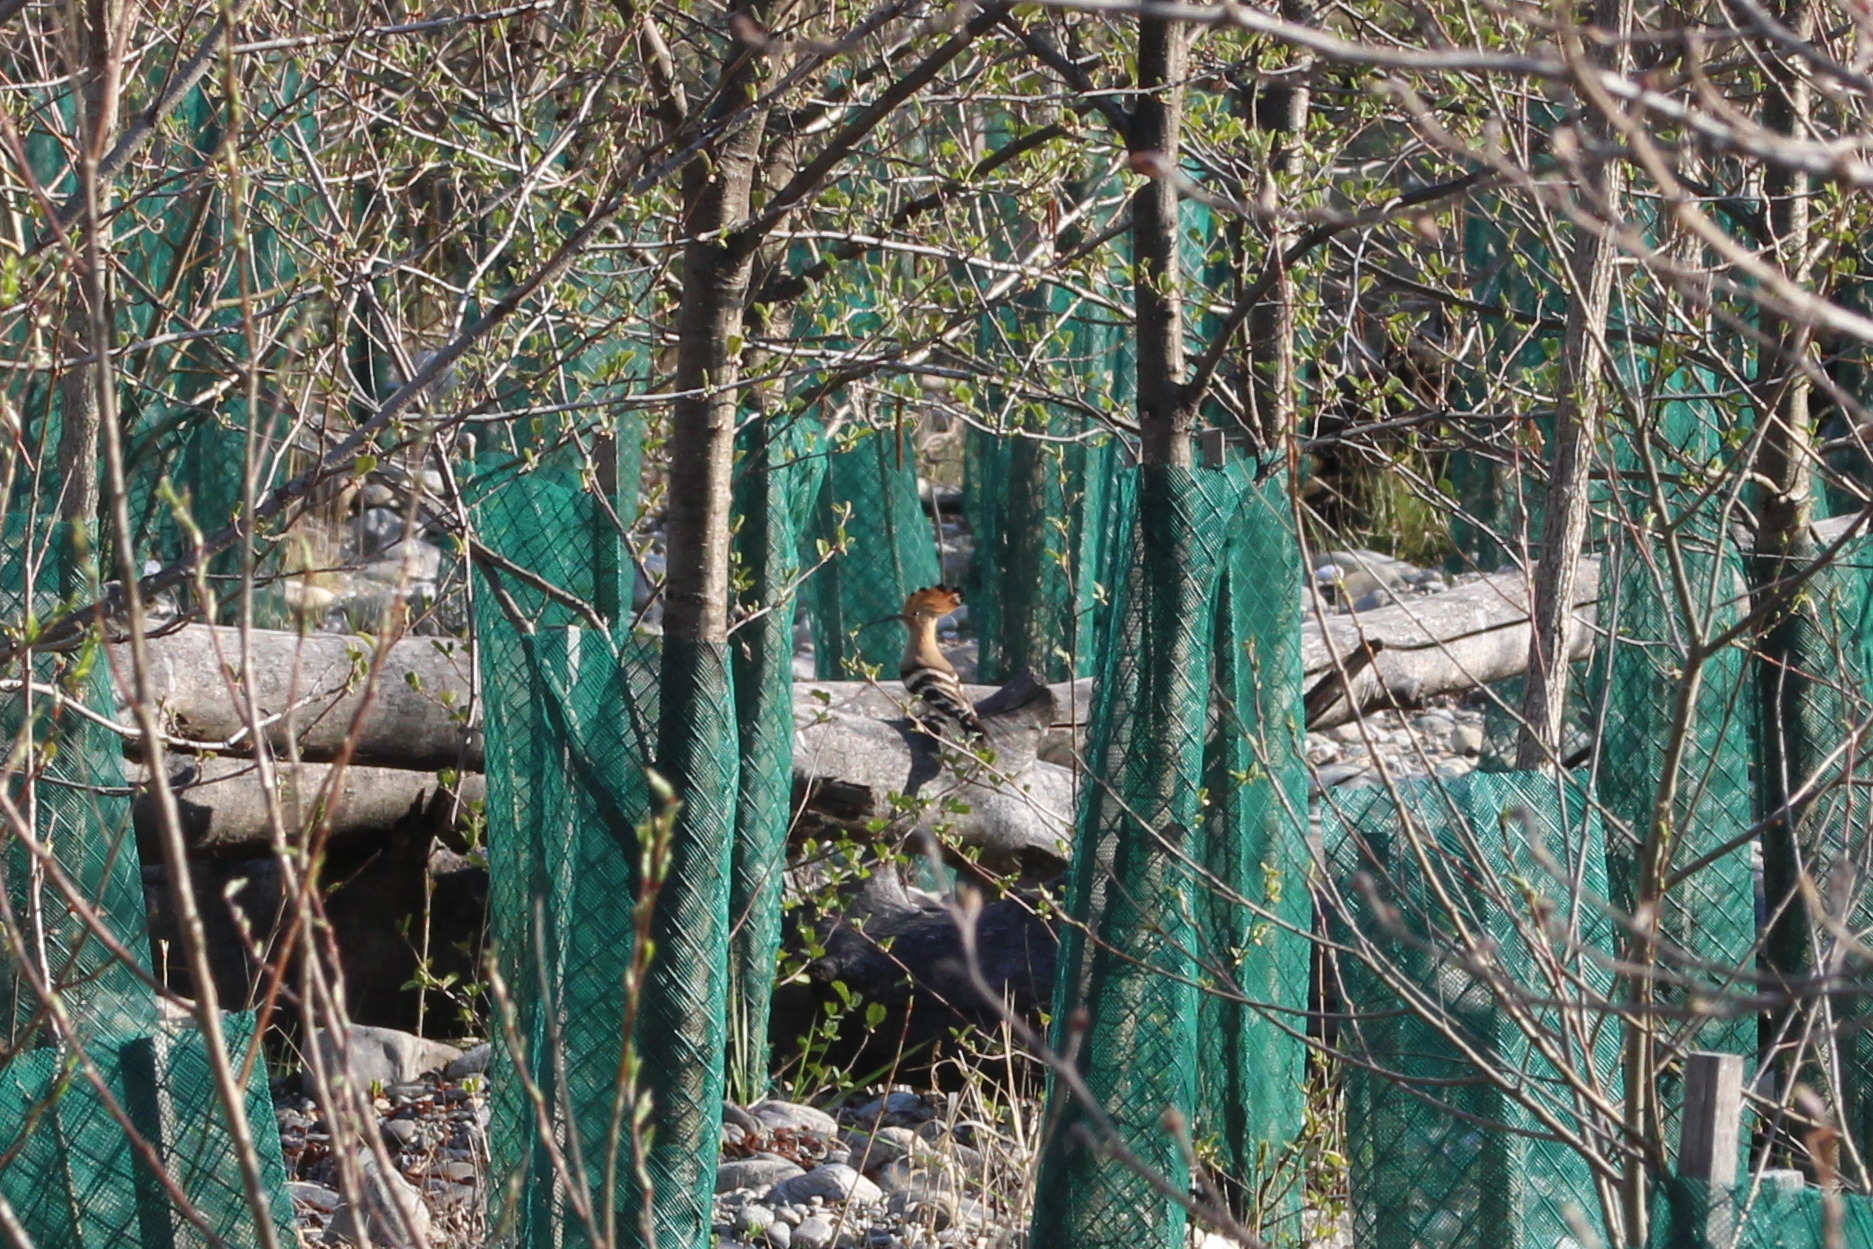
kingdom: Animalia
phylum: Chordata
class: Aves
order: Bucerotiformes
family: Upupidae
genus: Upupa
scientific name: Upupa epops
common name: Eurasian hoopoe
